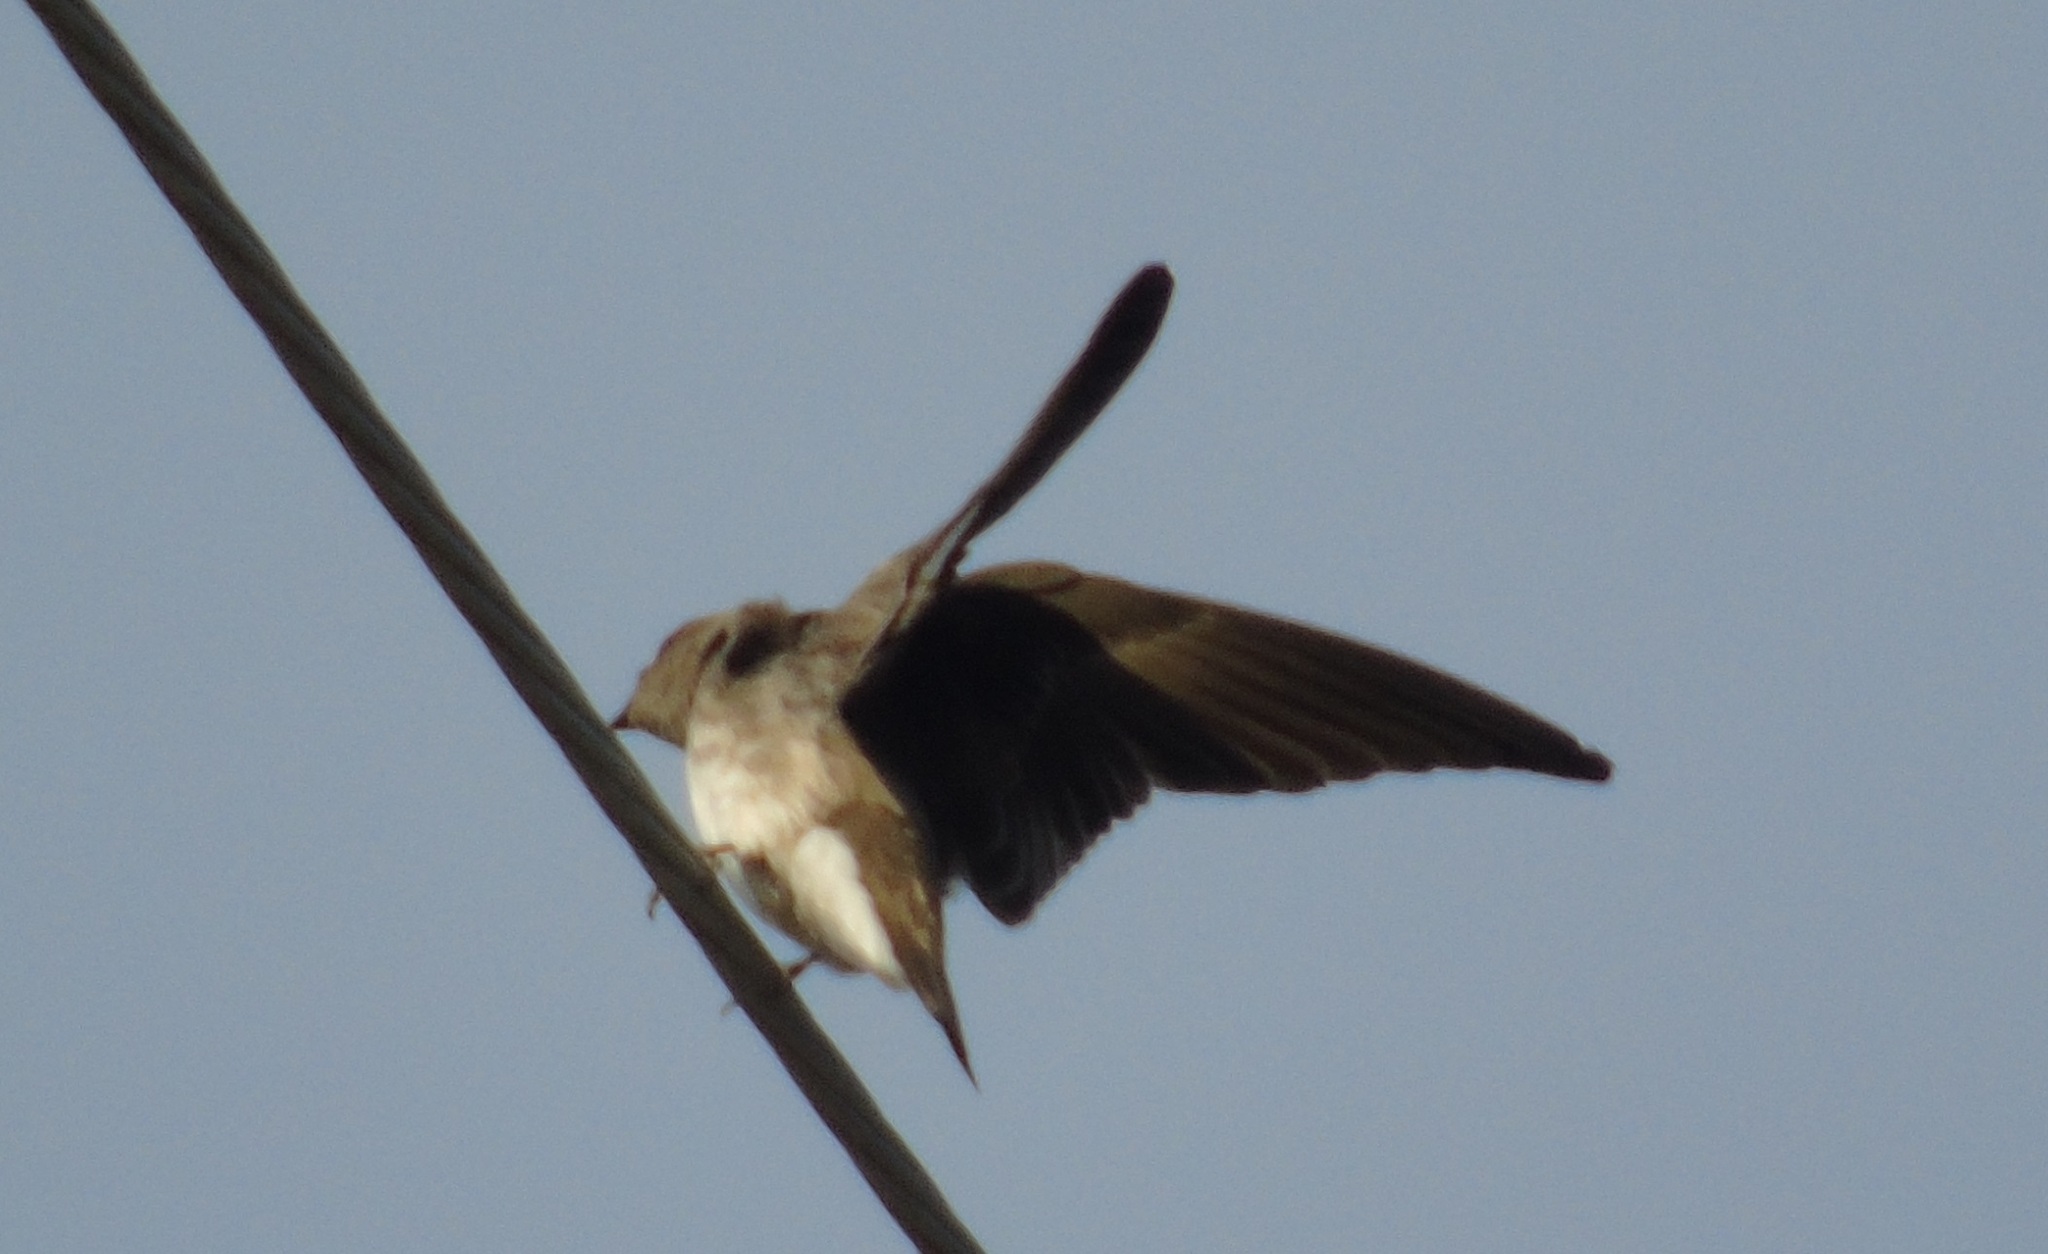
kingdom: Animalia
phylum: Chordata
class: Aves
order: Passeriformes
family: Hirundinidae
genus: Stelgidopteryx
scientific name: Stelgidopteryx serripennis
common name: Northern rough-winged swallow
